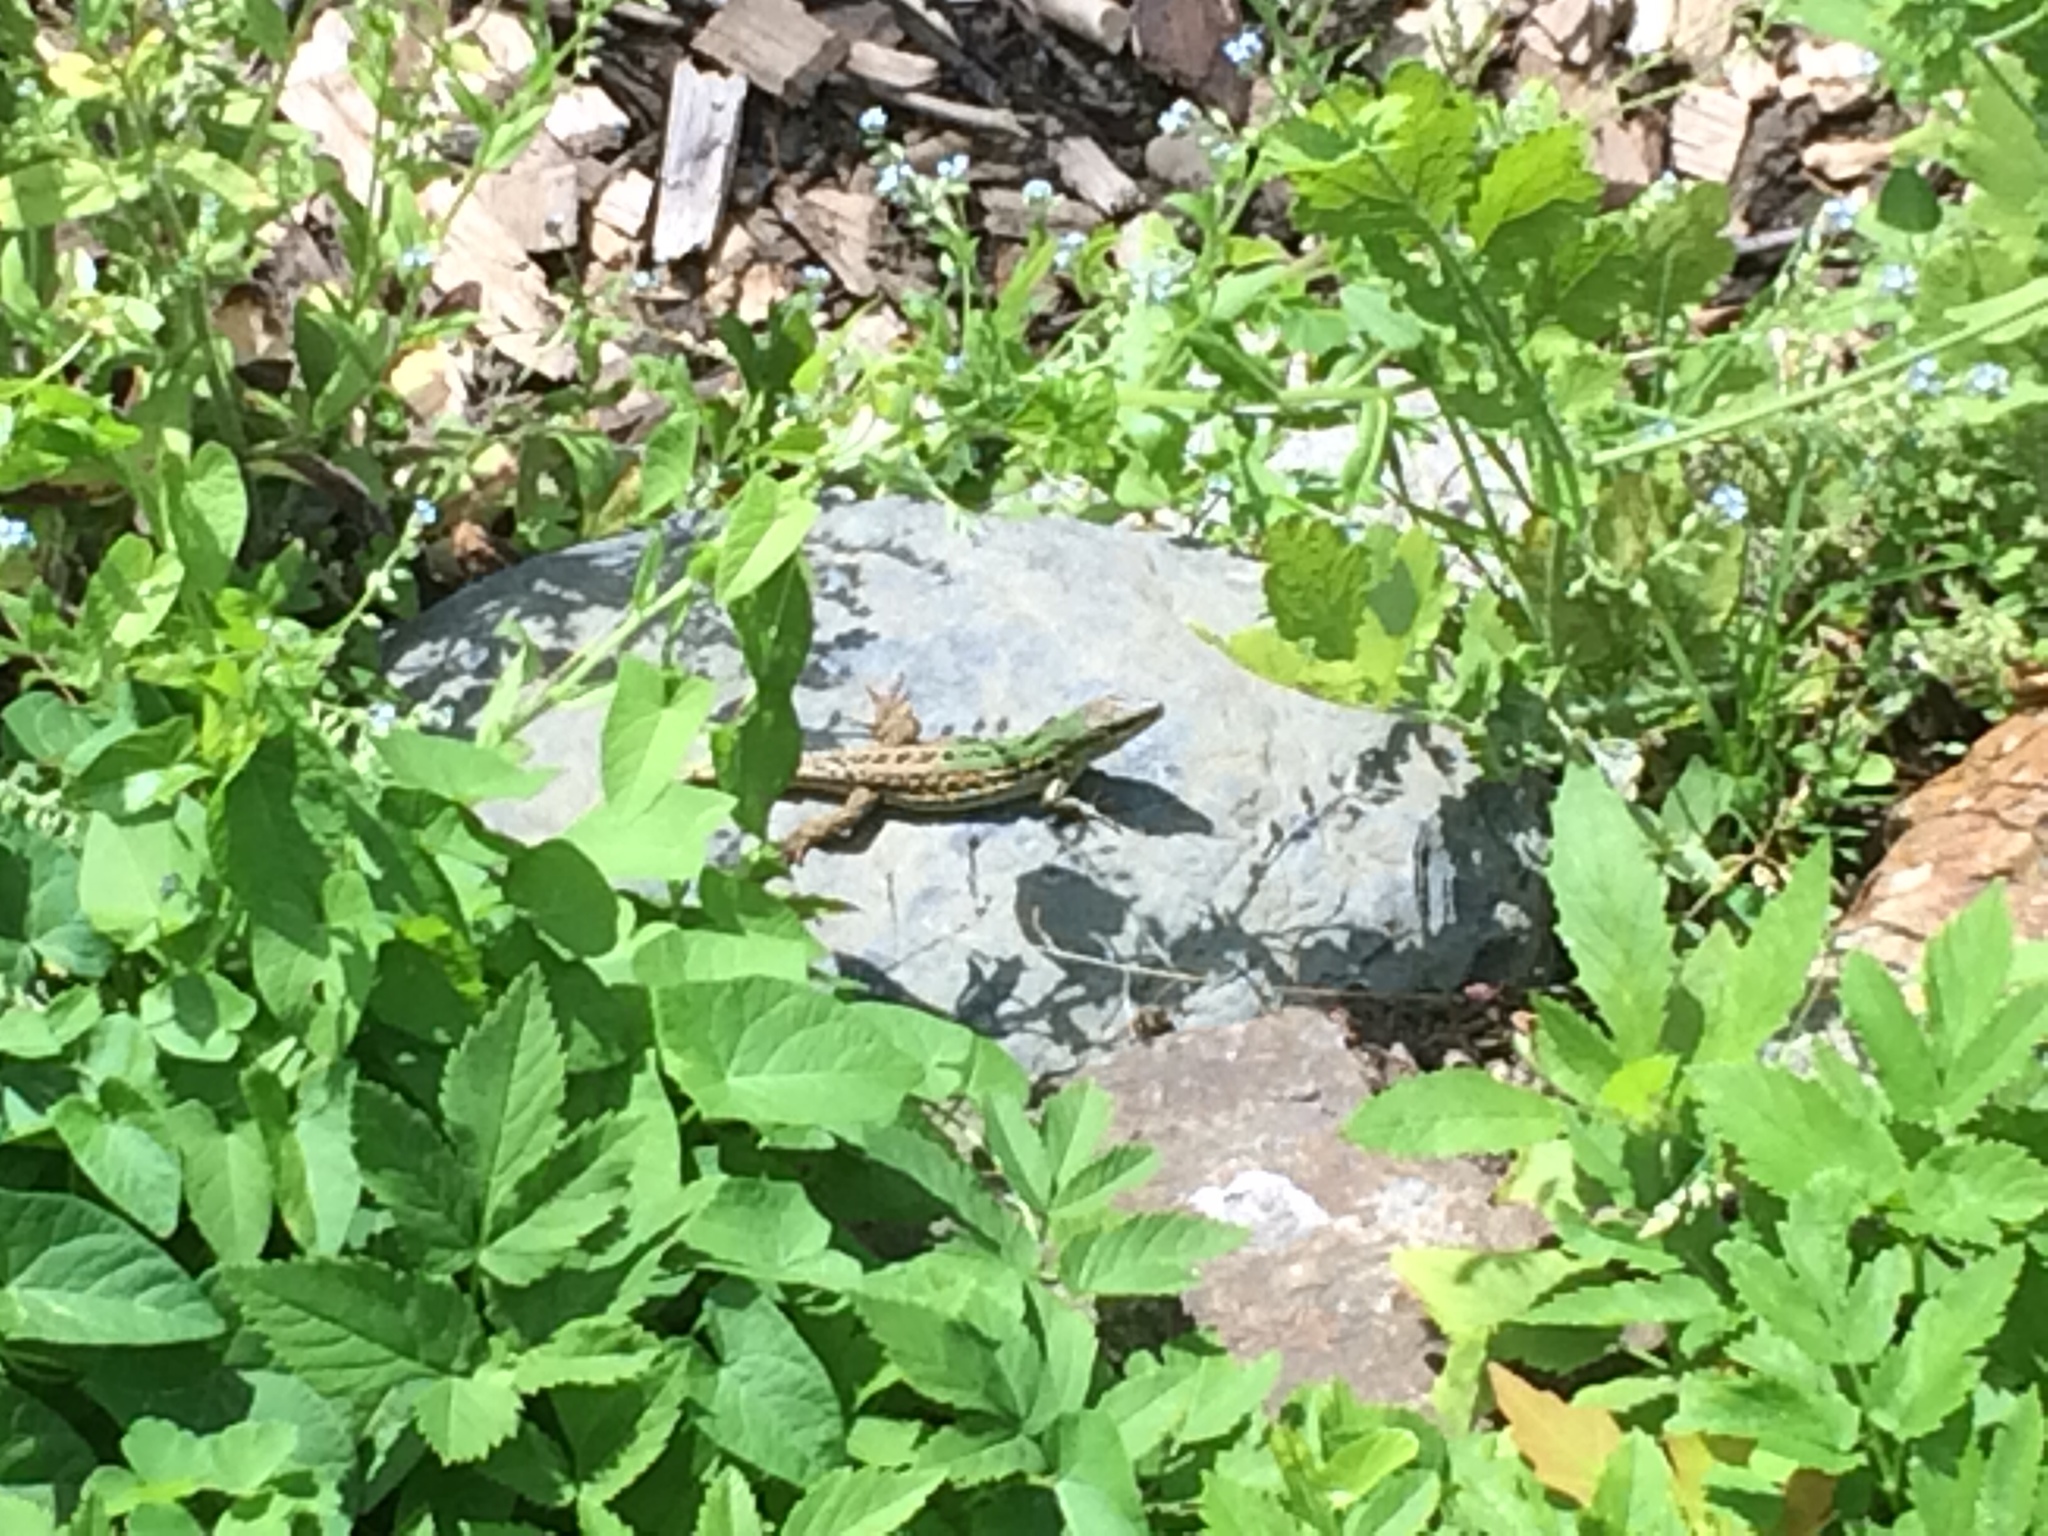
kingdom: Animalia
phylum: Chordata
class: Squamata
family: Lacertidae
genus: Podarcis
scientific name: Podarcis siculus
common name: Italian wall lizard
